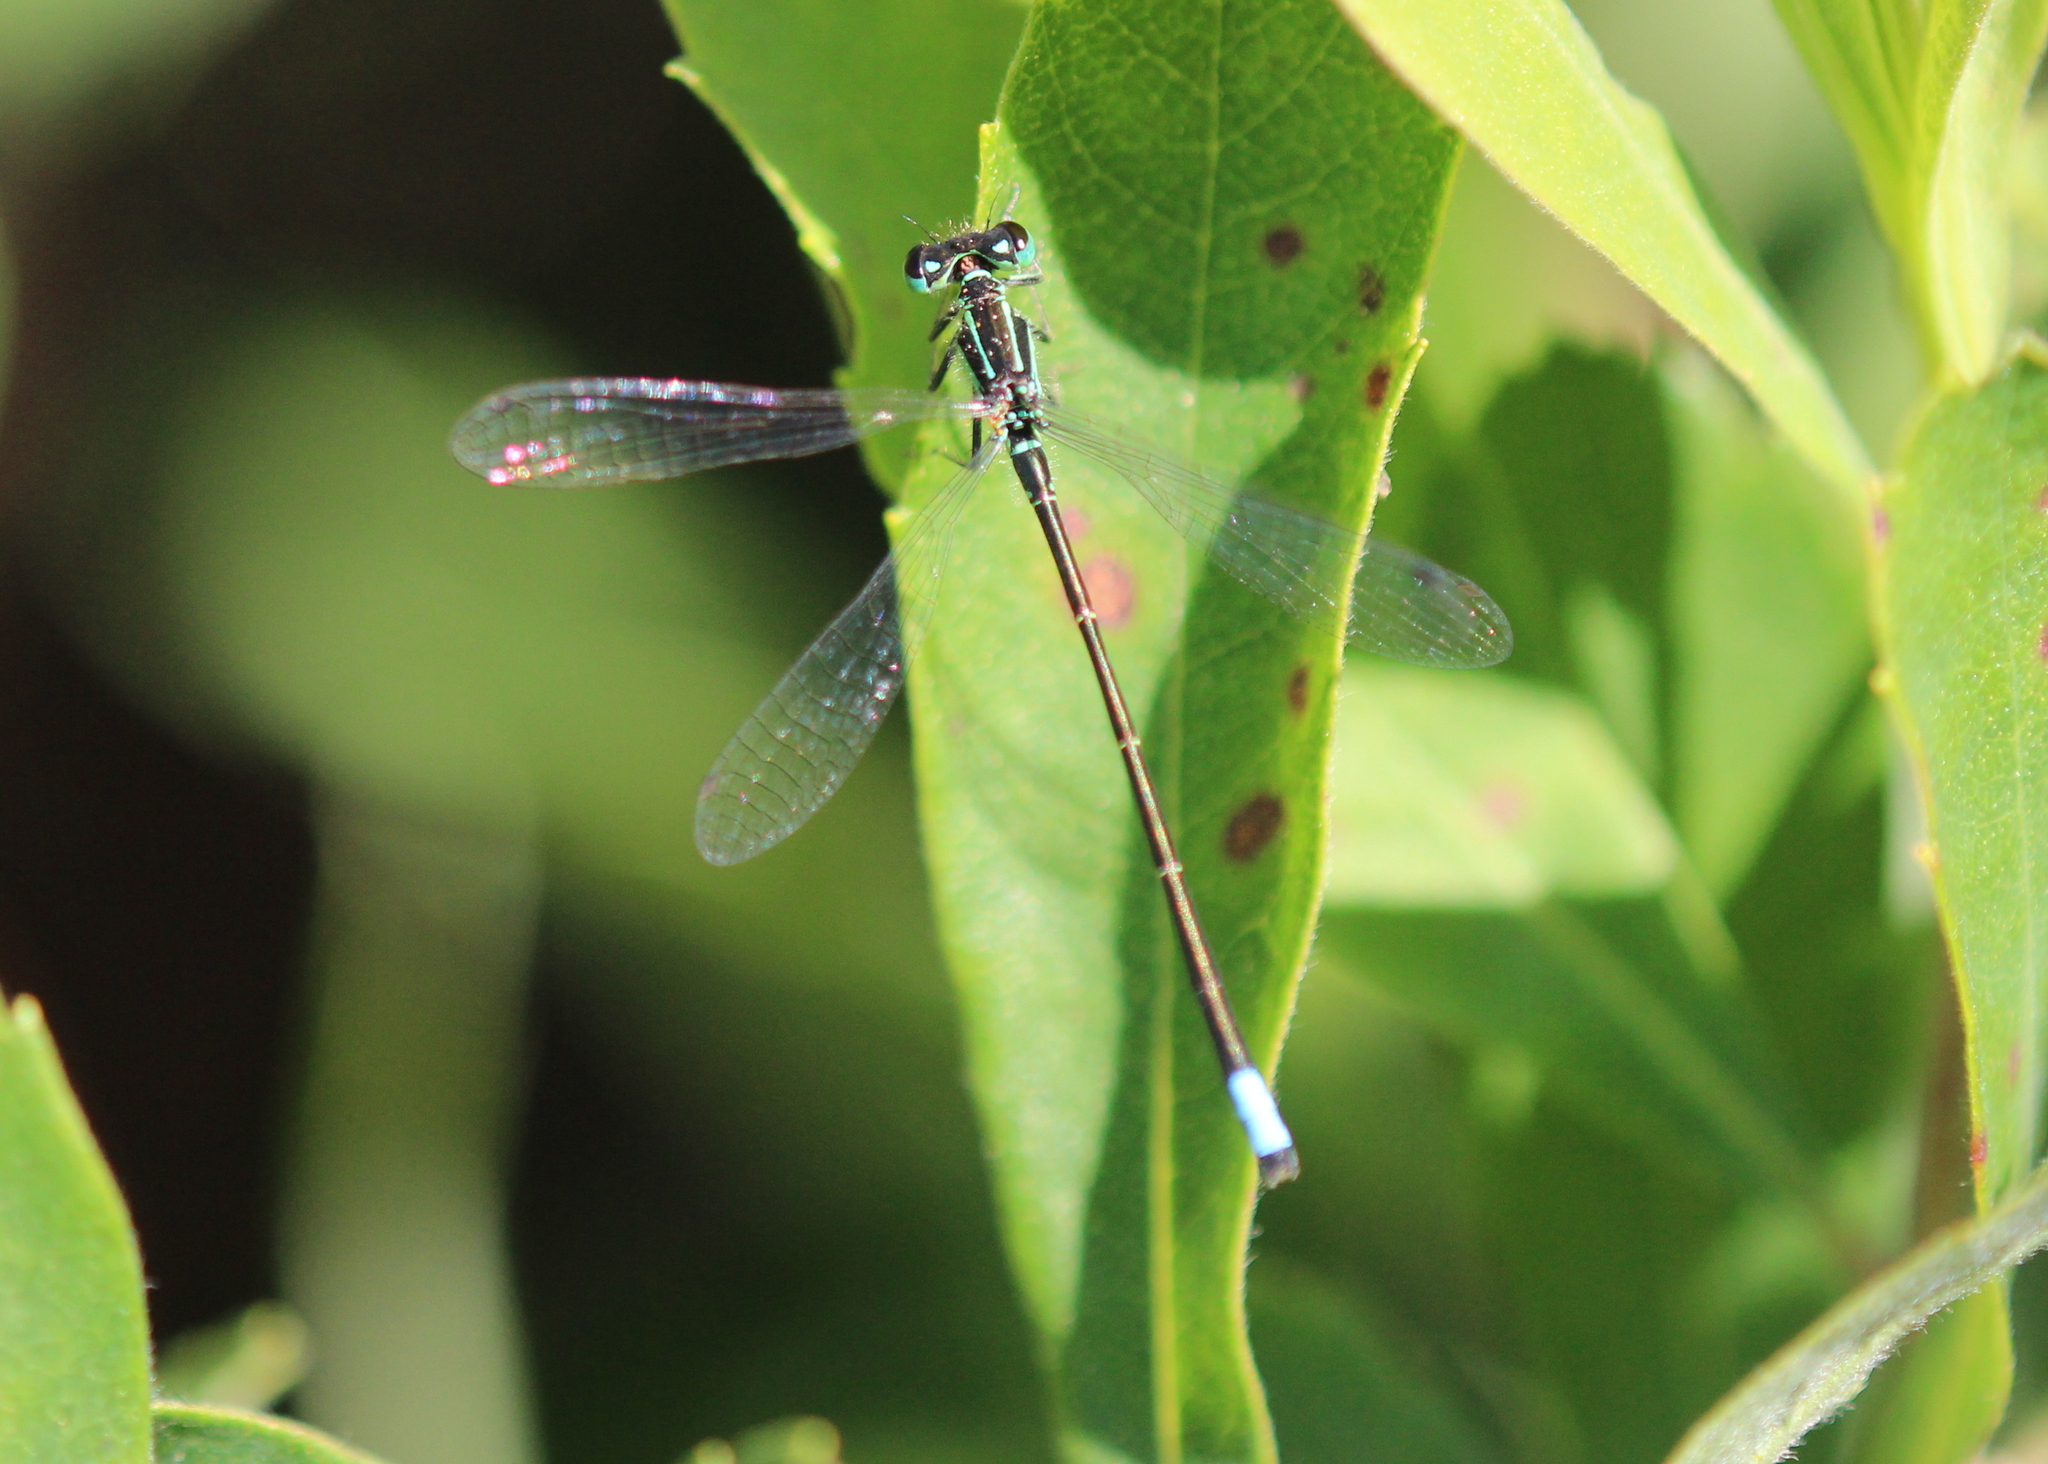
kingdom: Animalia
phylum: Arthropoda
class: Insecta
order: Odonata
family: Coenagrionidae
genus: Ischnura
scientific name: Ischnura verticalis
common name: Eastern forktail
